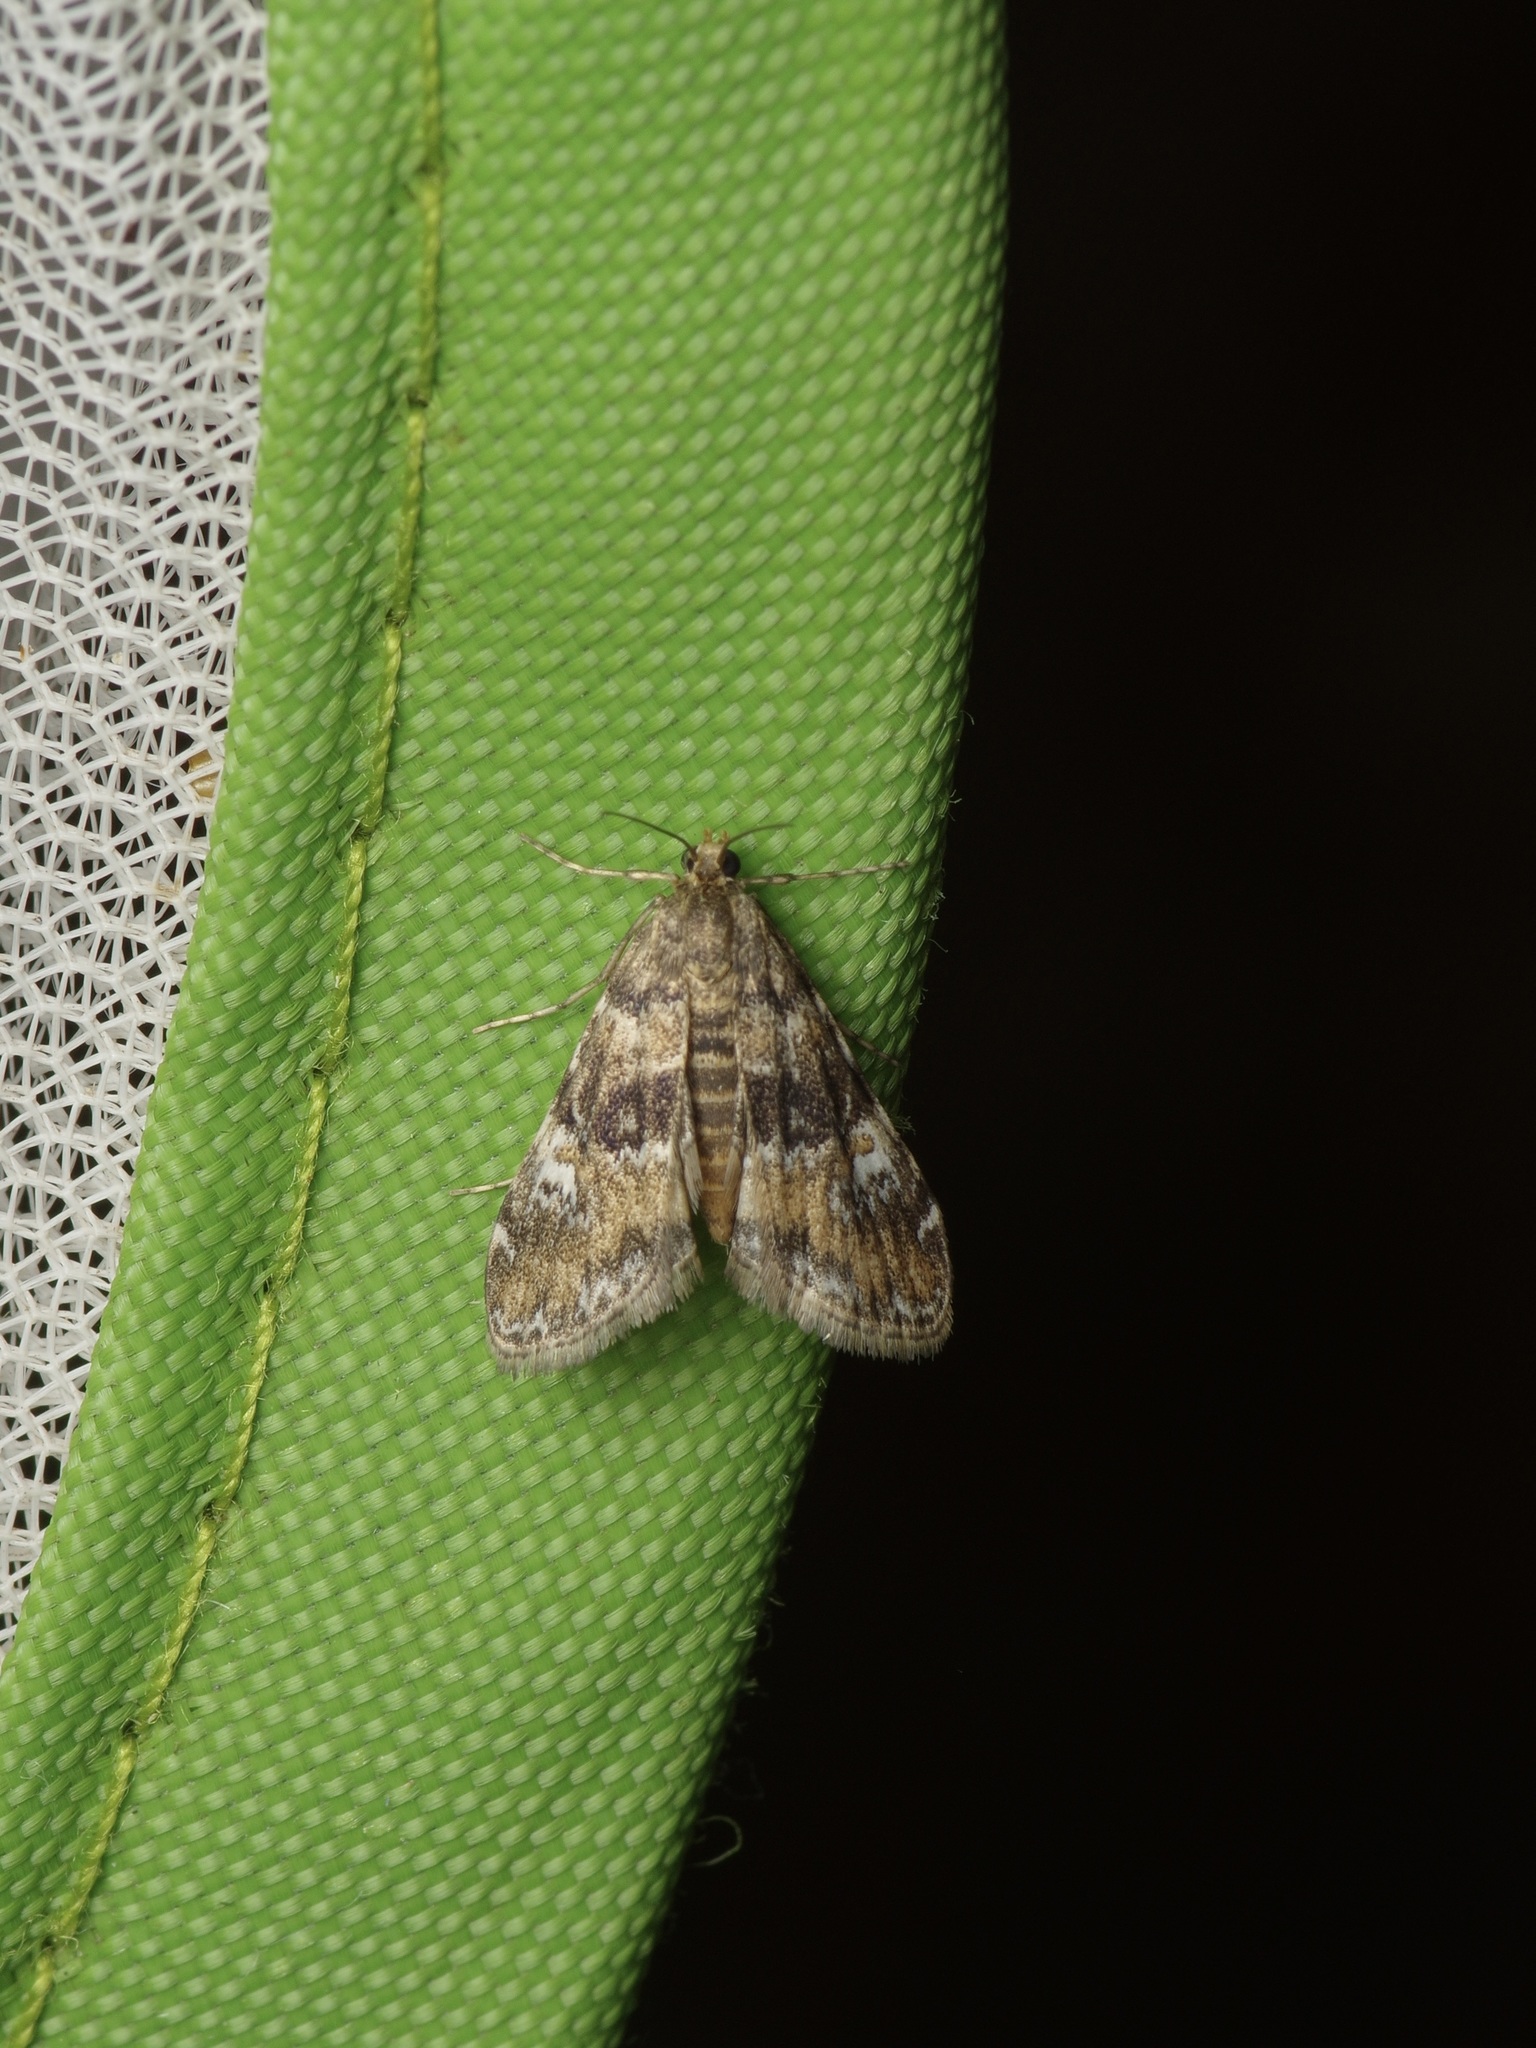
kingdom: Animalia
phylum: Arthropoda
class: Insecta
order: Lepidoptera
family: Crambidae
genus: Elophila
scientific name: Elophila obliteralis
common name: Waterlily leafcutter moth
